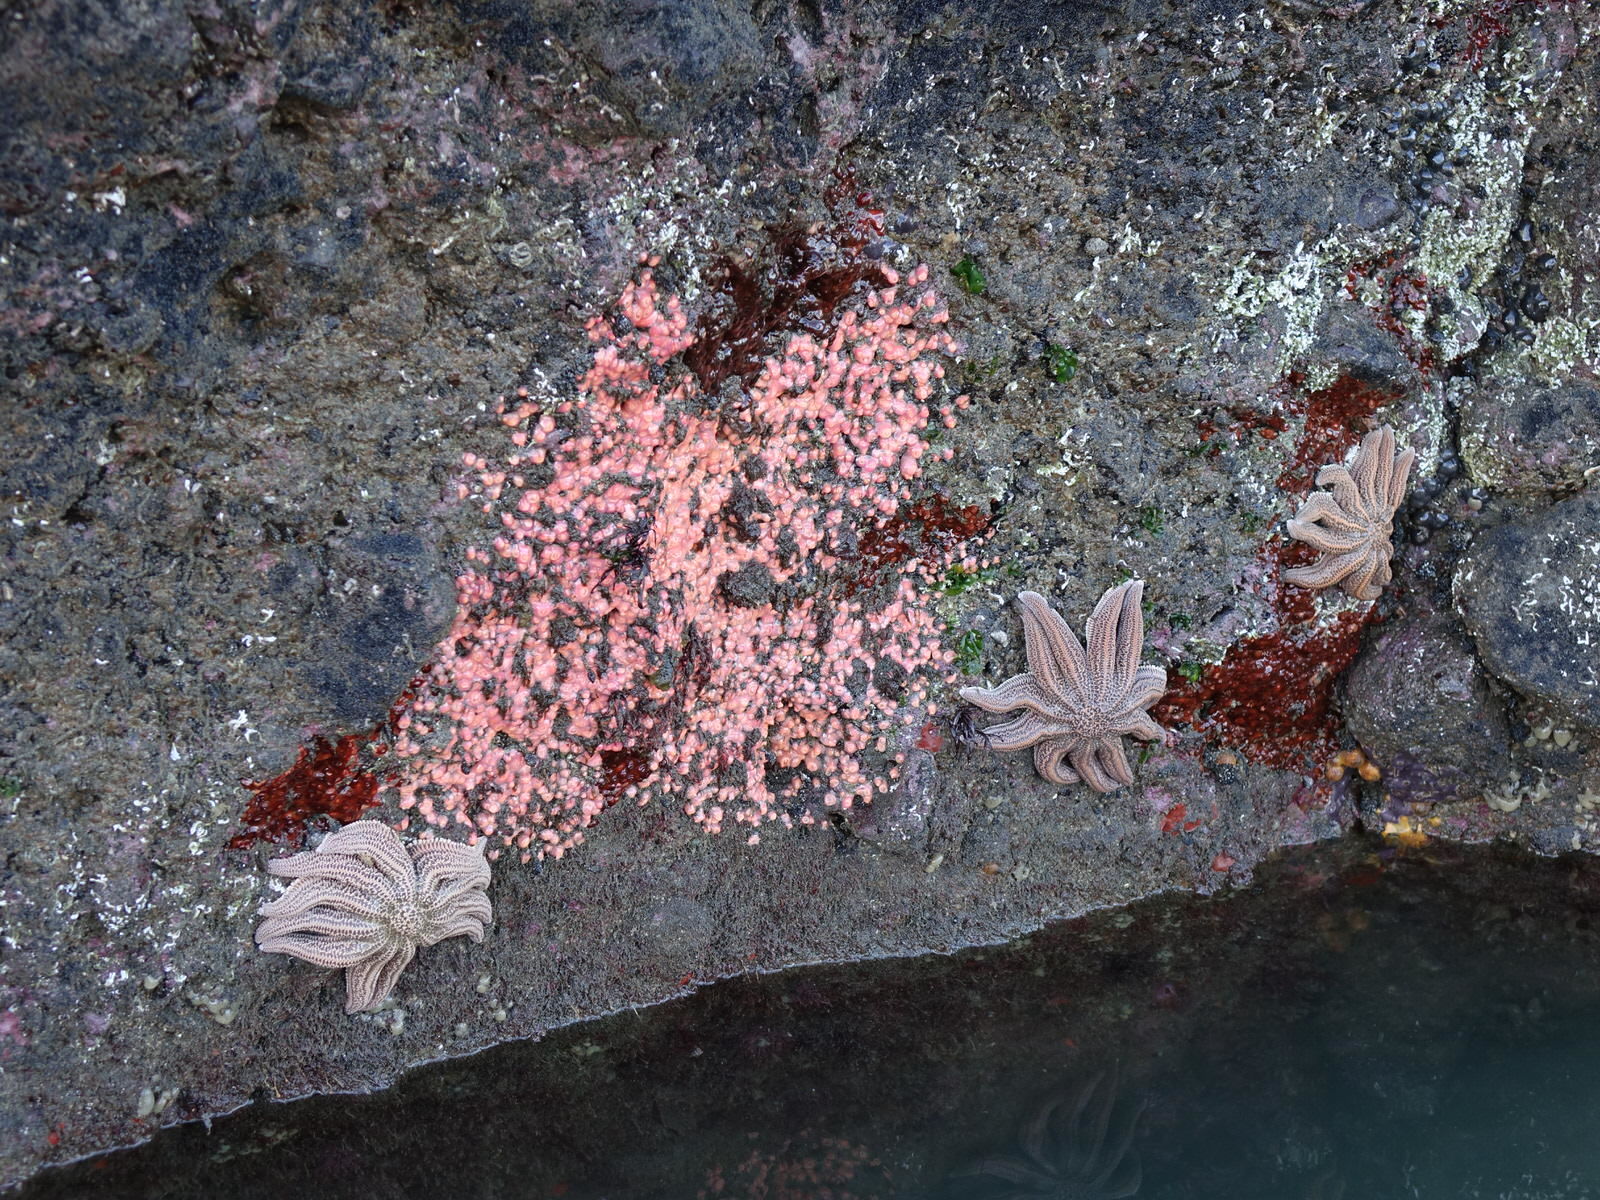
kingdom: Animalia
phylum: Cnidaria
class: Anthozoa
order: Corallimorpharia
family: Corallimorphidae
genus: Corynactis
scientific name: Corynactis australis
